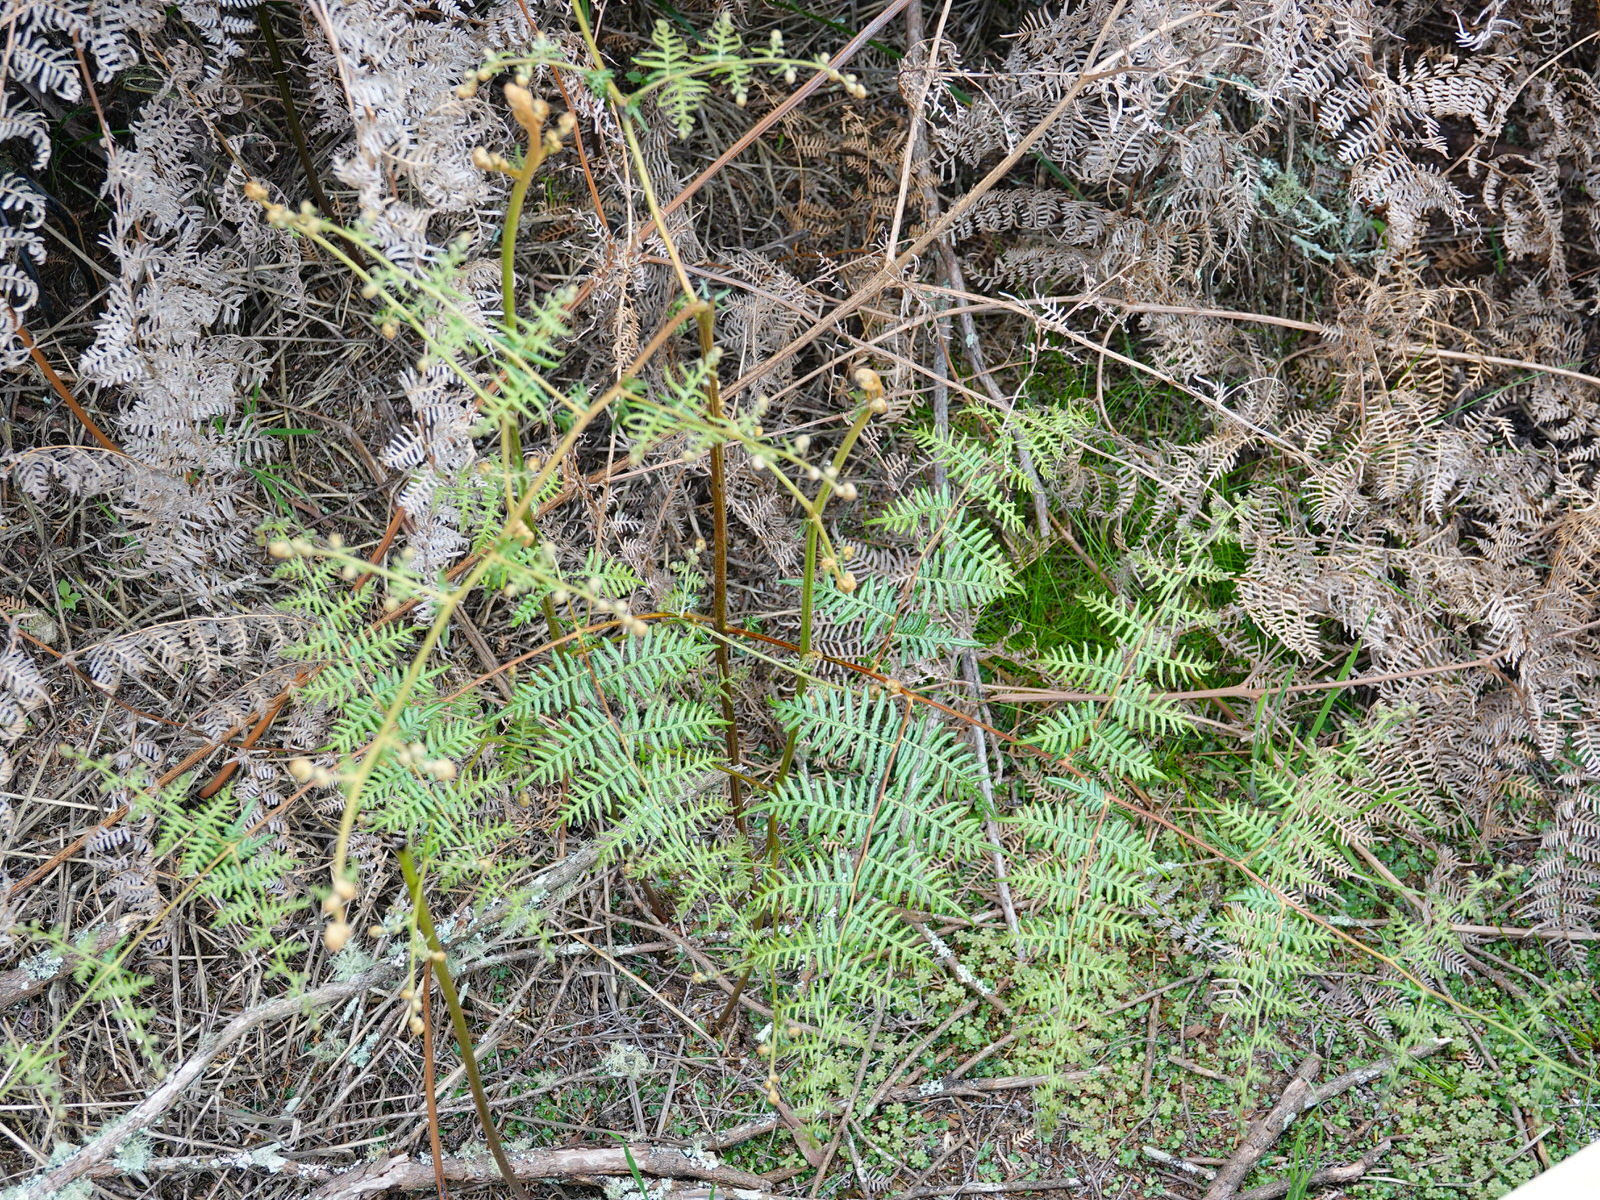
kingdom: Plantae
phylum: Tracheophyta
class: Polypodiopsida
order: Polypodiales
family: Dennstaedtiaceae
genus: Pteridium
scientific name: Pteridium esculentum
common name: Bracken fern
